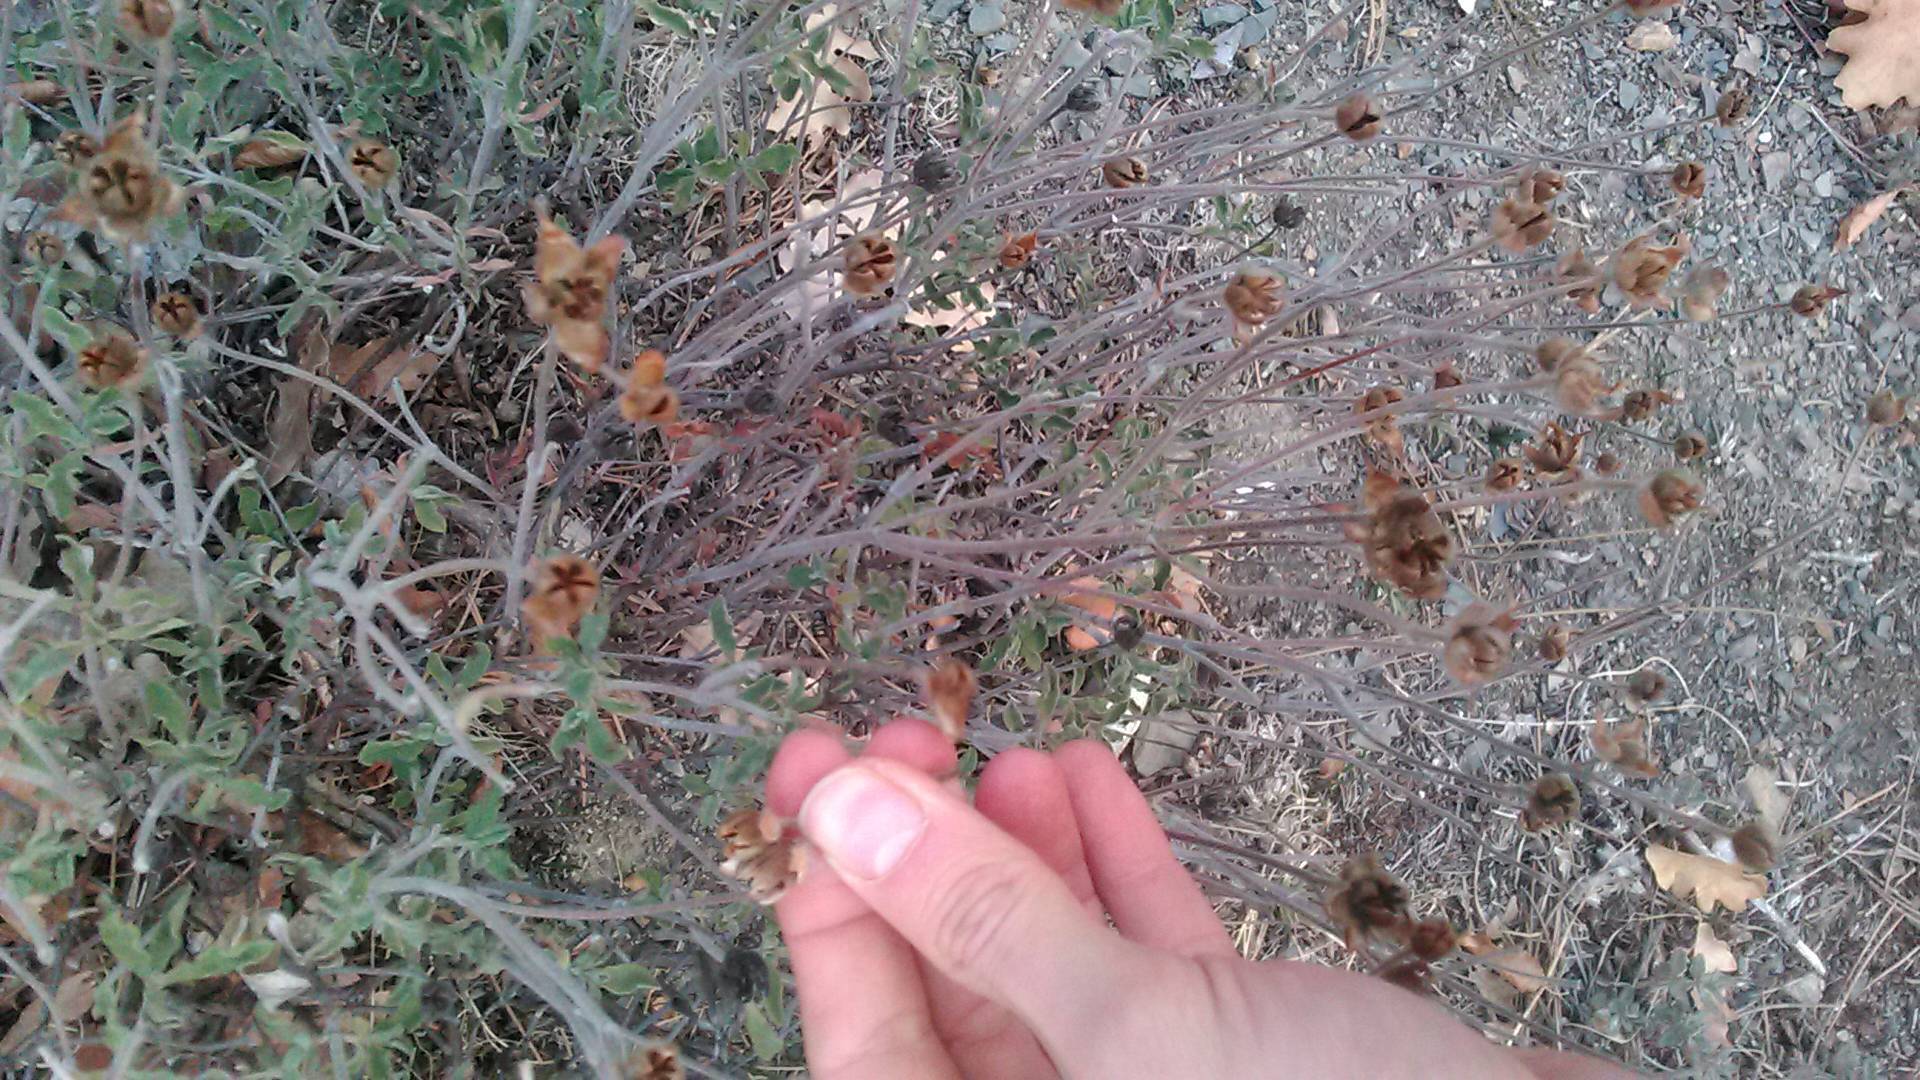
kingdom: Plantae
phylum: Tracheophyta
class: Magnoliopsida
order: Malvales
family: Cistaceae
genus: Cistus
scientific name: Cistus tauricus
